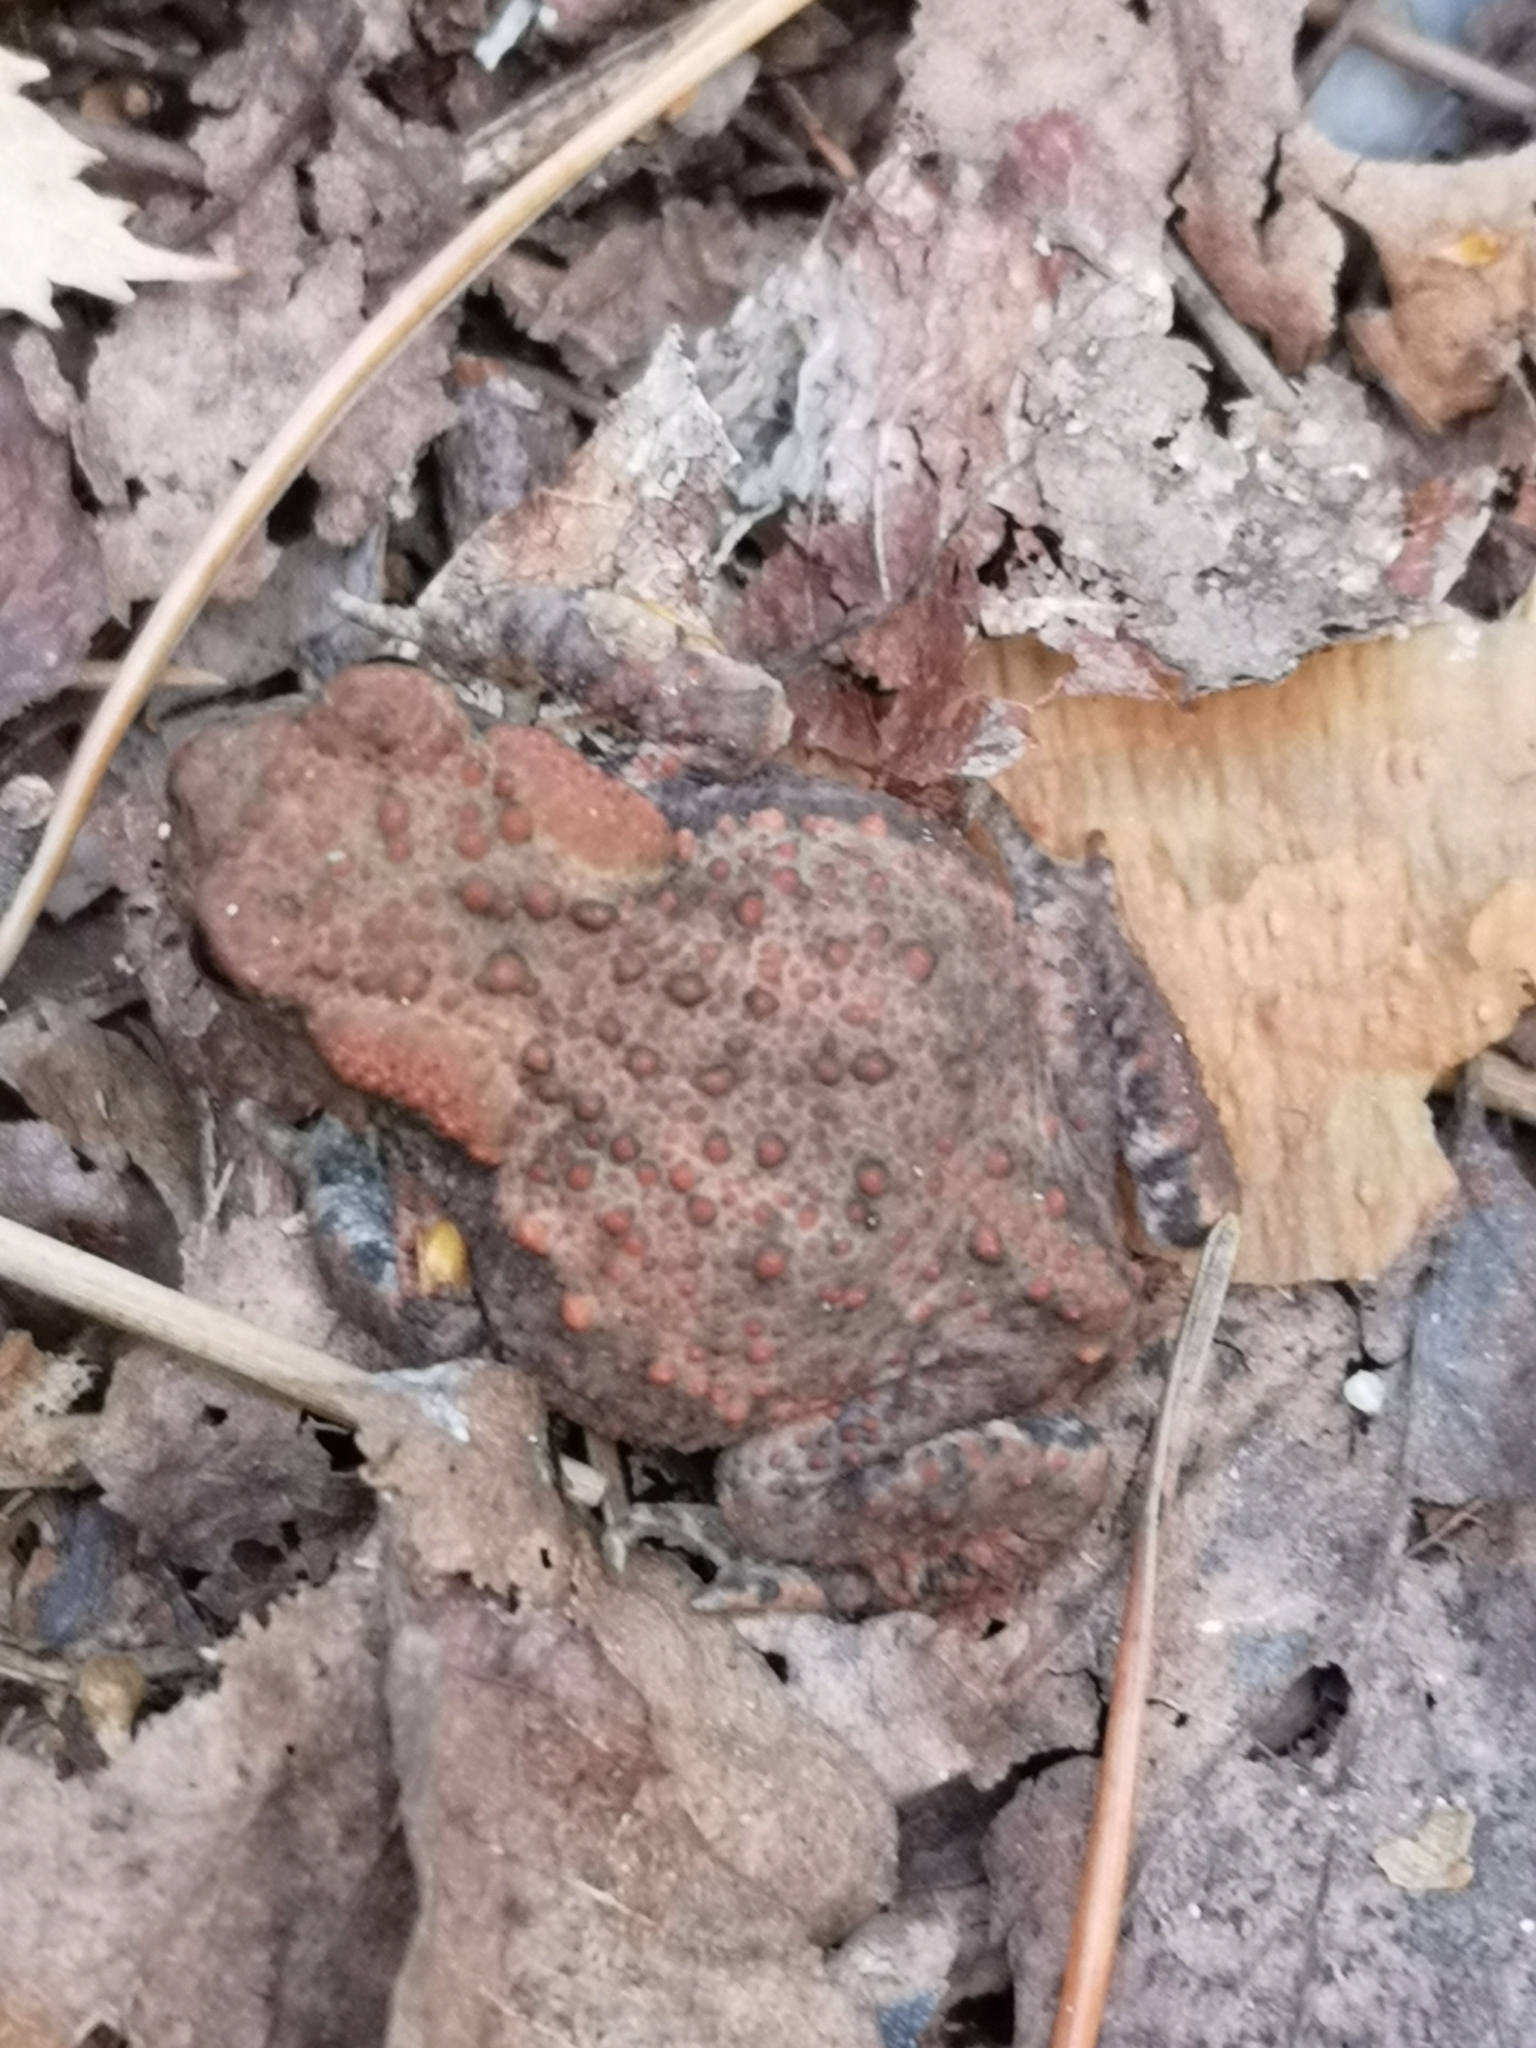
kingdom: Animalia
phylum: Chordata
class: Amphibia
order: Anura
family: Bufonidae
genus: Bufo
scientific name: Bufo bufo
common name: Common toad
